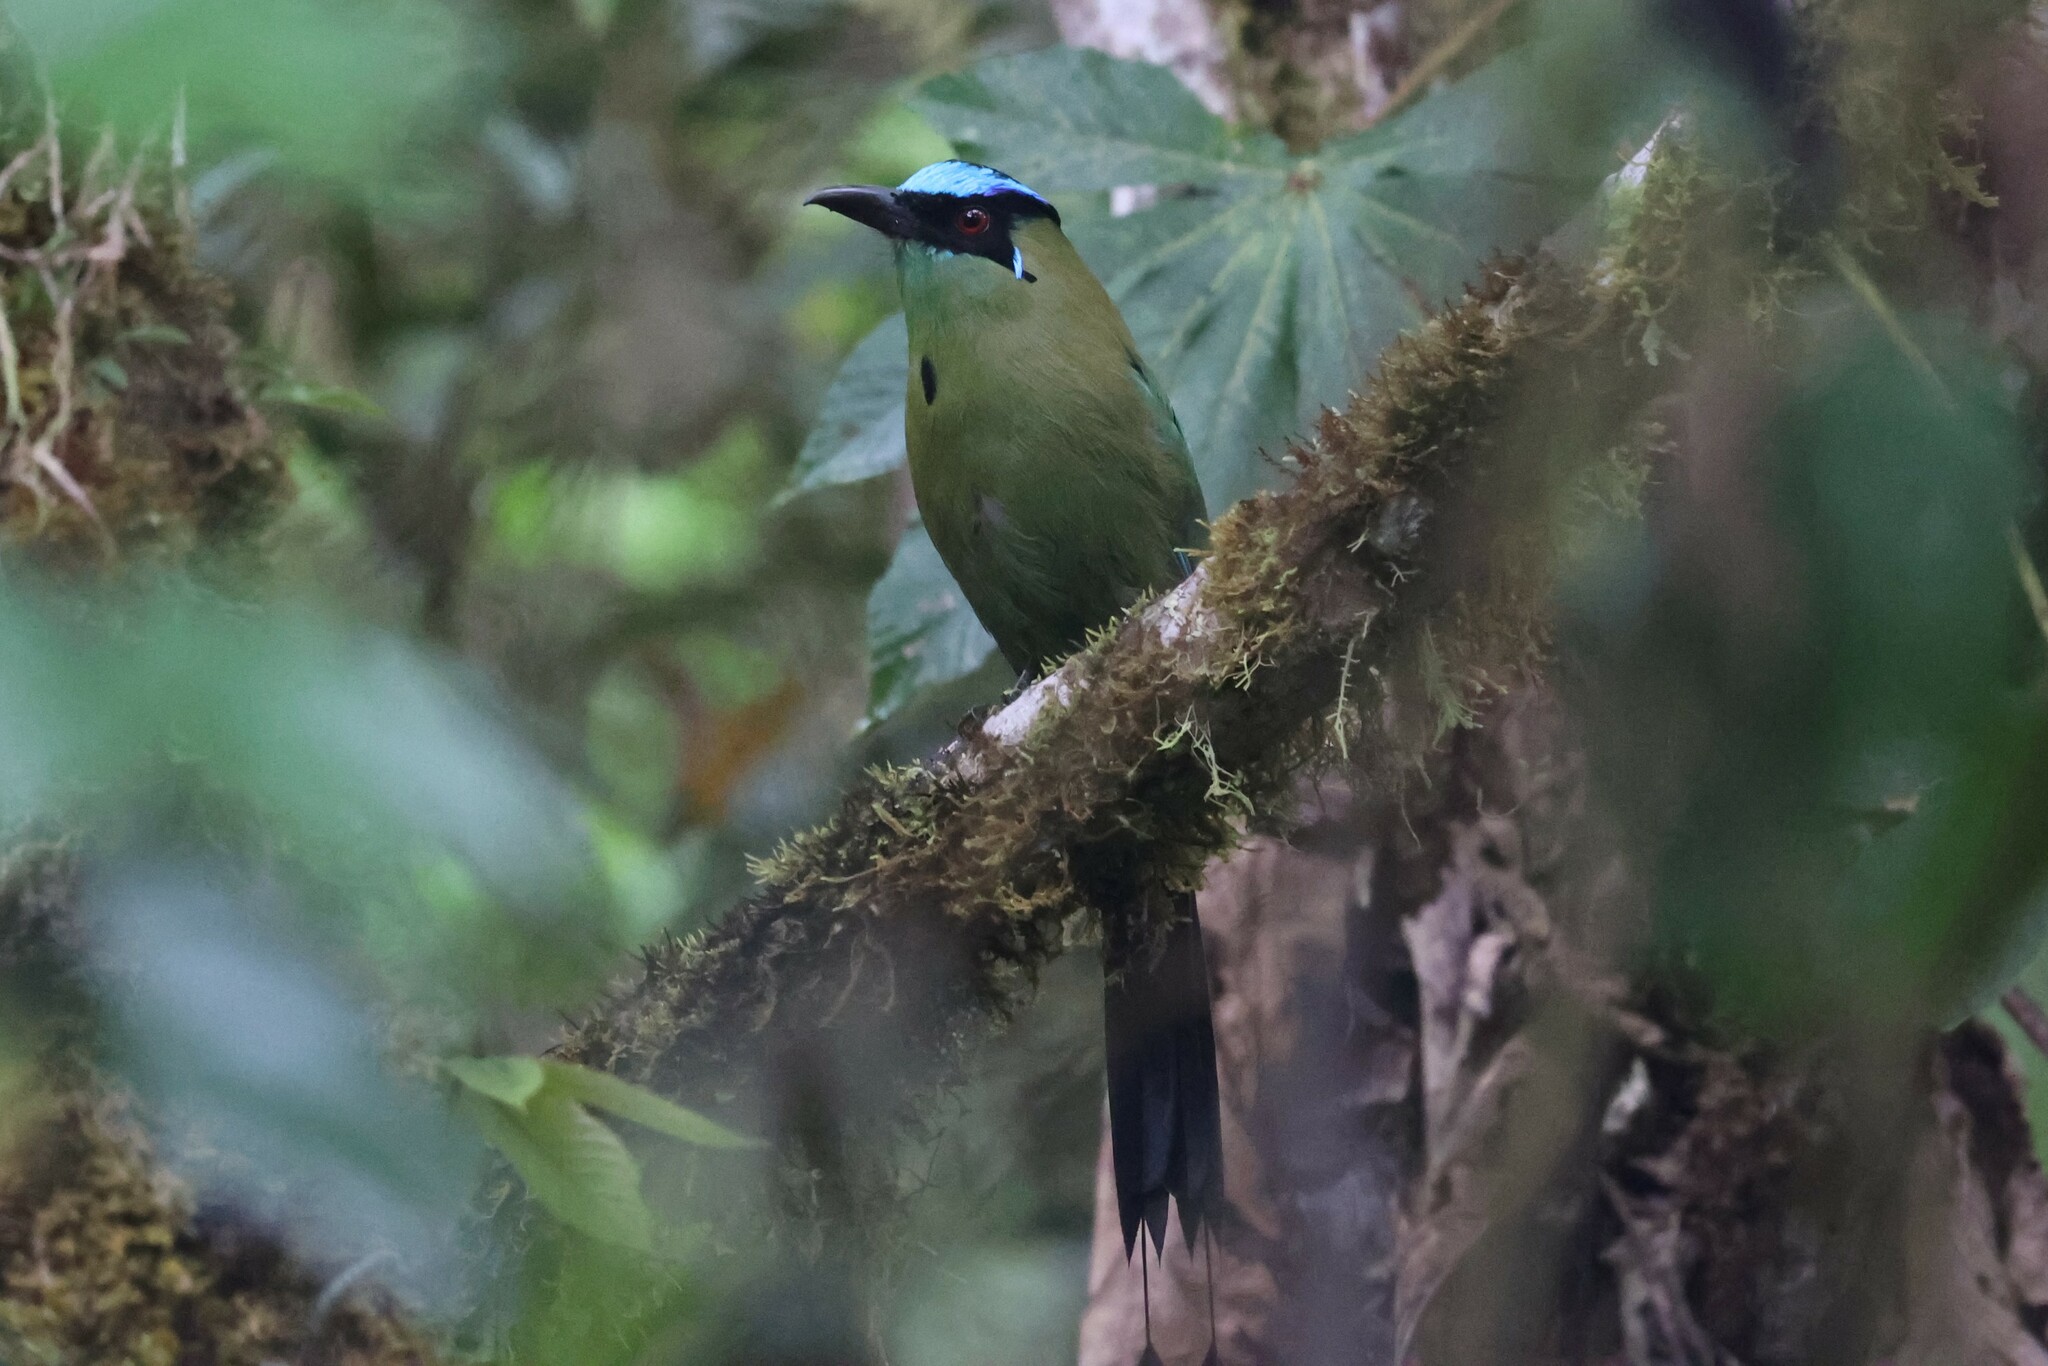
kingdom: Animalia
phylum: Chordata
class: Aves
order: Coraciiformes
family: Momotidae
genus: Momotus
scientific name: Momotus aequatorialis
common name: Andean motmot
